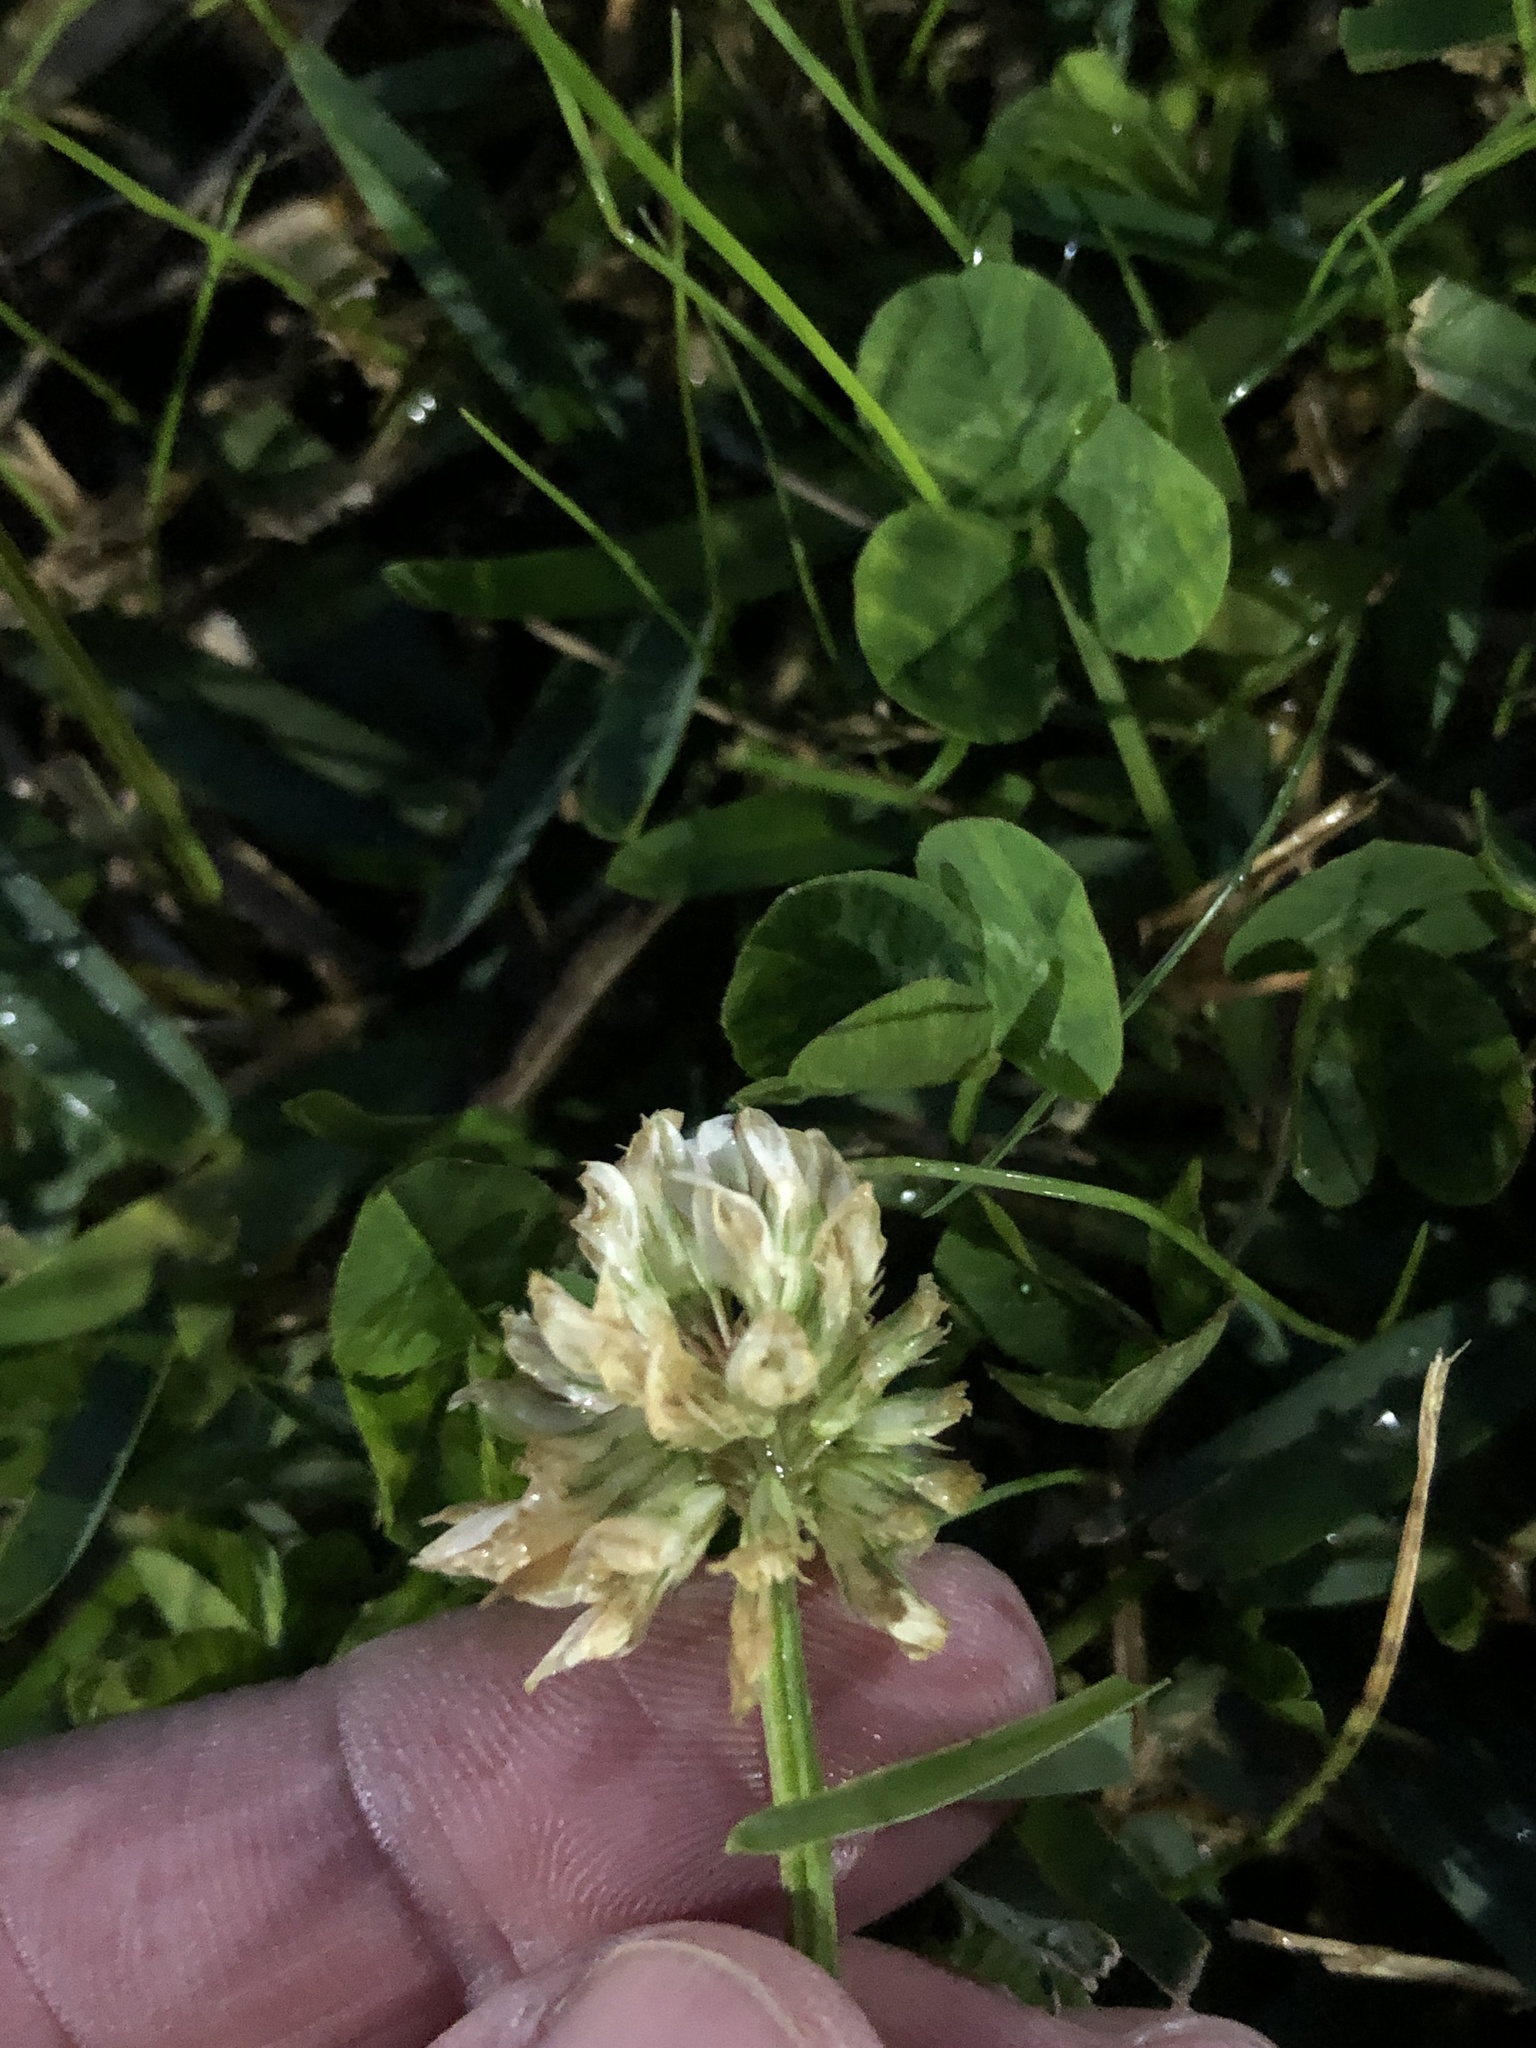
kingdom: Plantae
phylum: Tracheophyta
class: Magnoliopsida
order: Fabales
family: Fabaceae
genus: Trifolium
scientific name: Trifolium repens
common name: White clover
